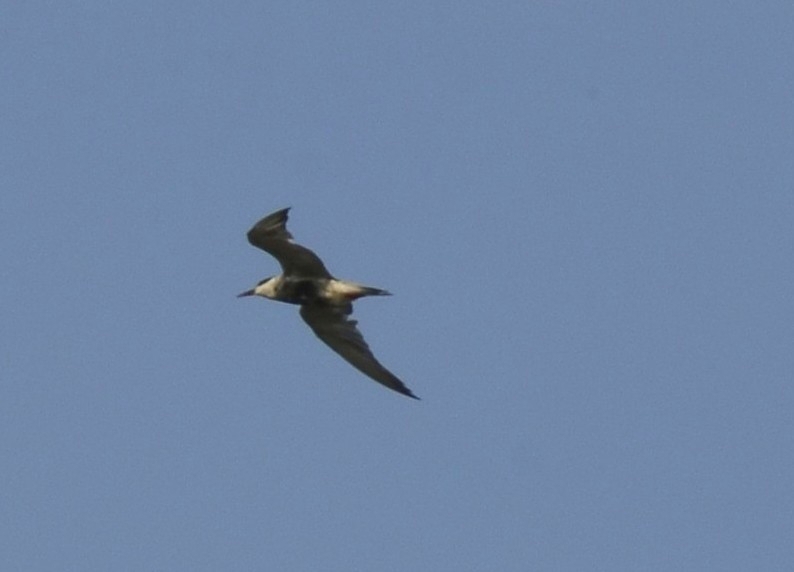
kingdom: Animalia
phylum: Chordata
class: Aves
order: Charadriiformes
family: Laridae
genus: Chlidonias
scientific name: Chlidonias hybrida
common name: Whiskered tern
